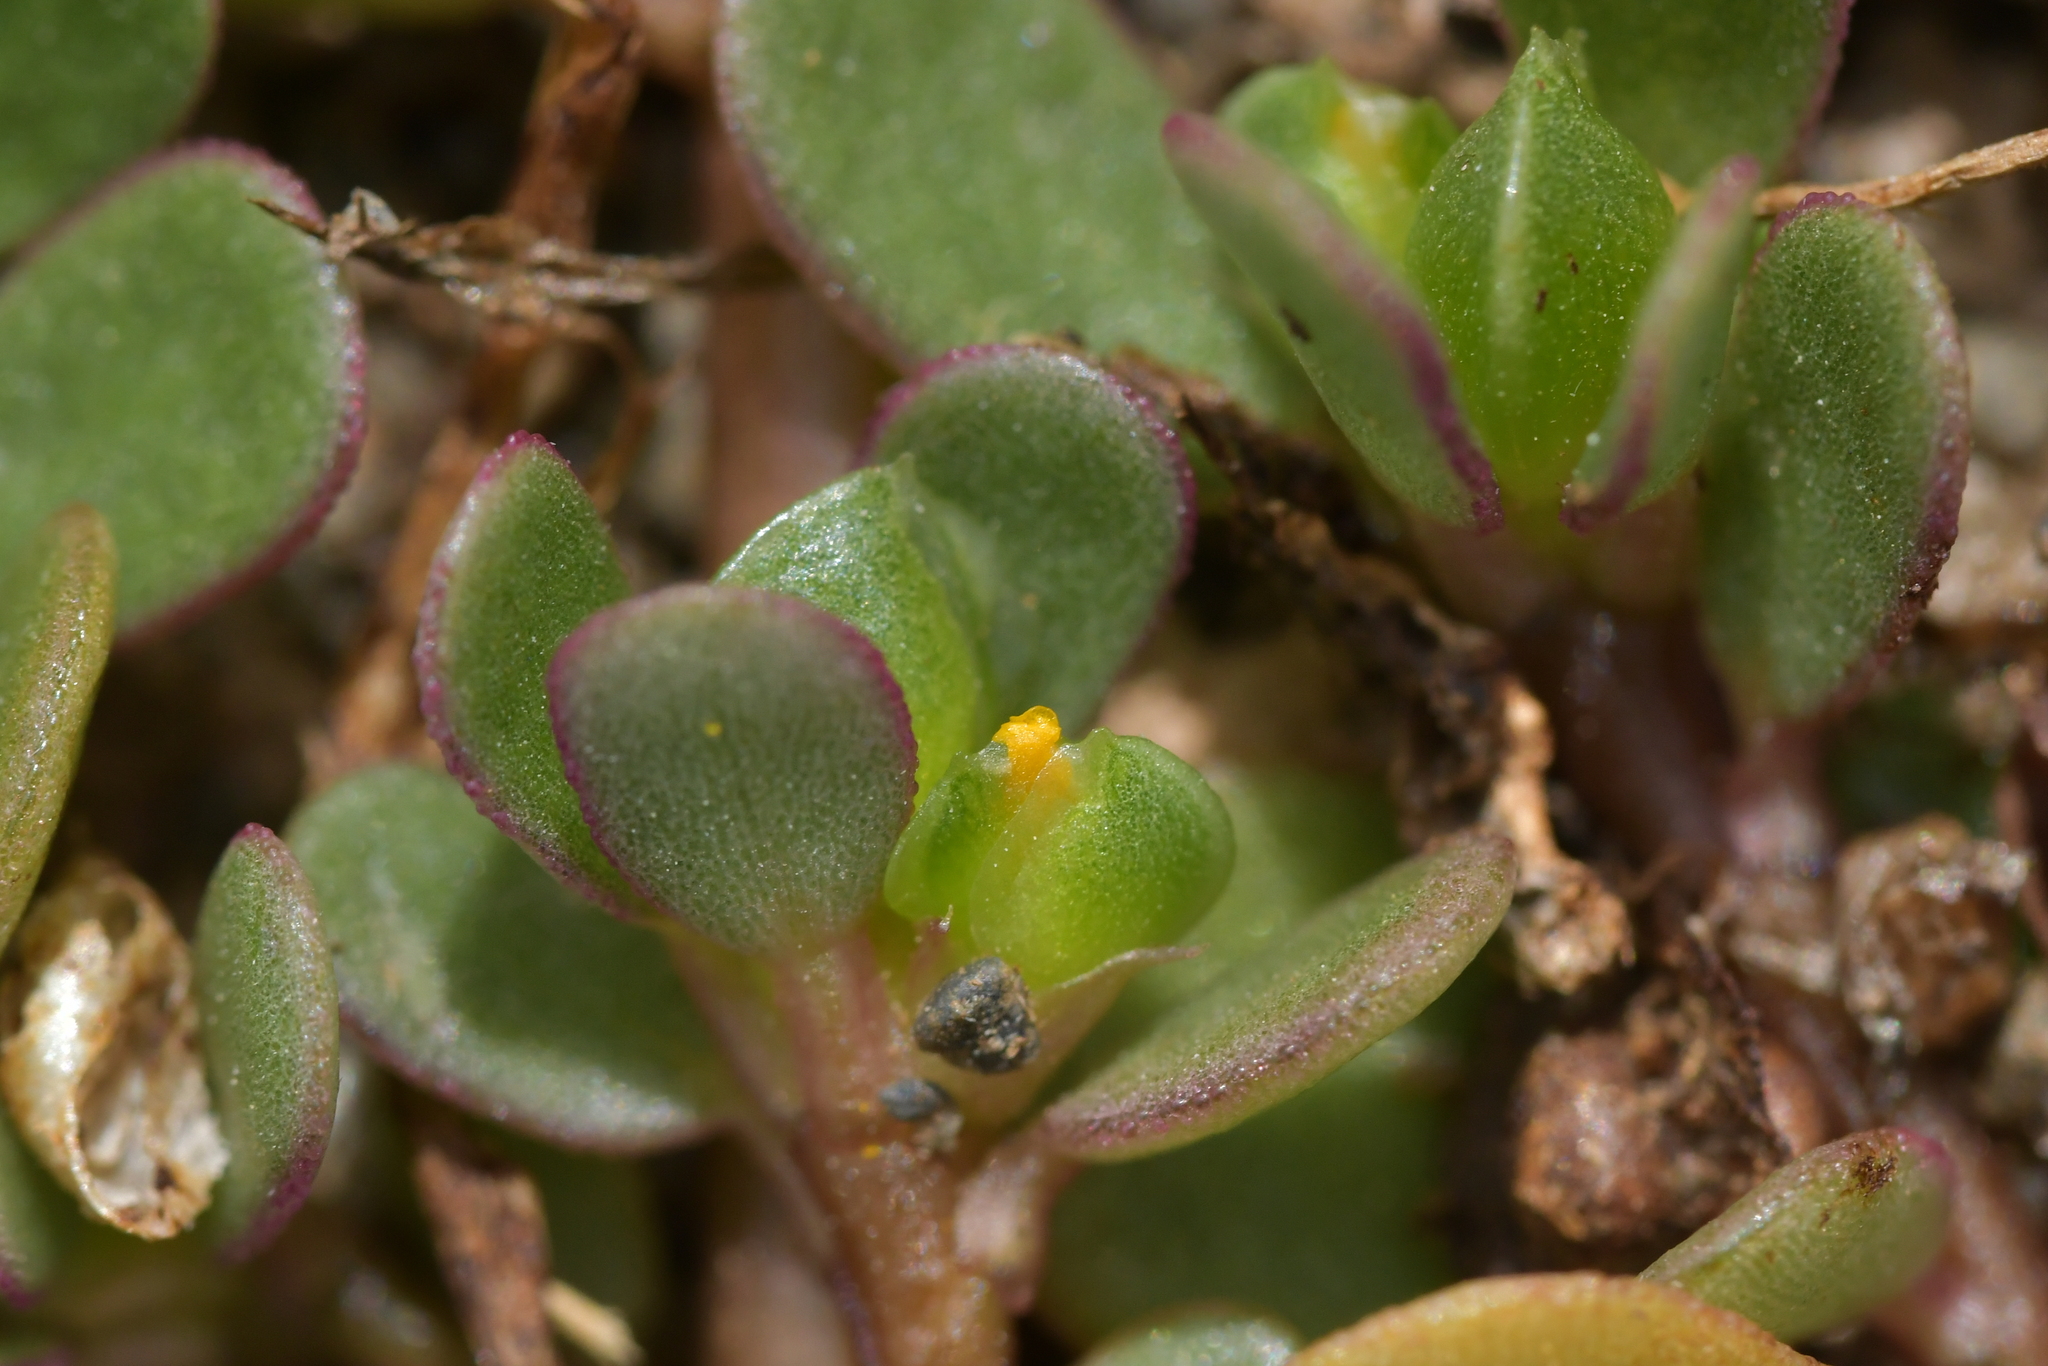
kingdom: Plantae
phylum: Tracheophyta
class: Magnoliopsida
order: Caryophyllales
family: Portulacaceae
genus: Portulaca
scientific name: Portulaca oleracea
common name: Common purslane
